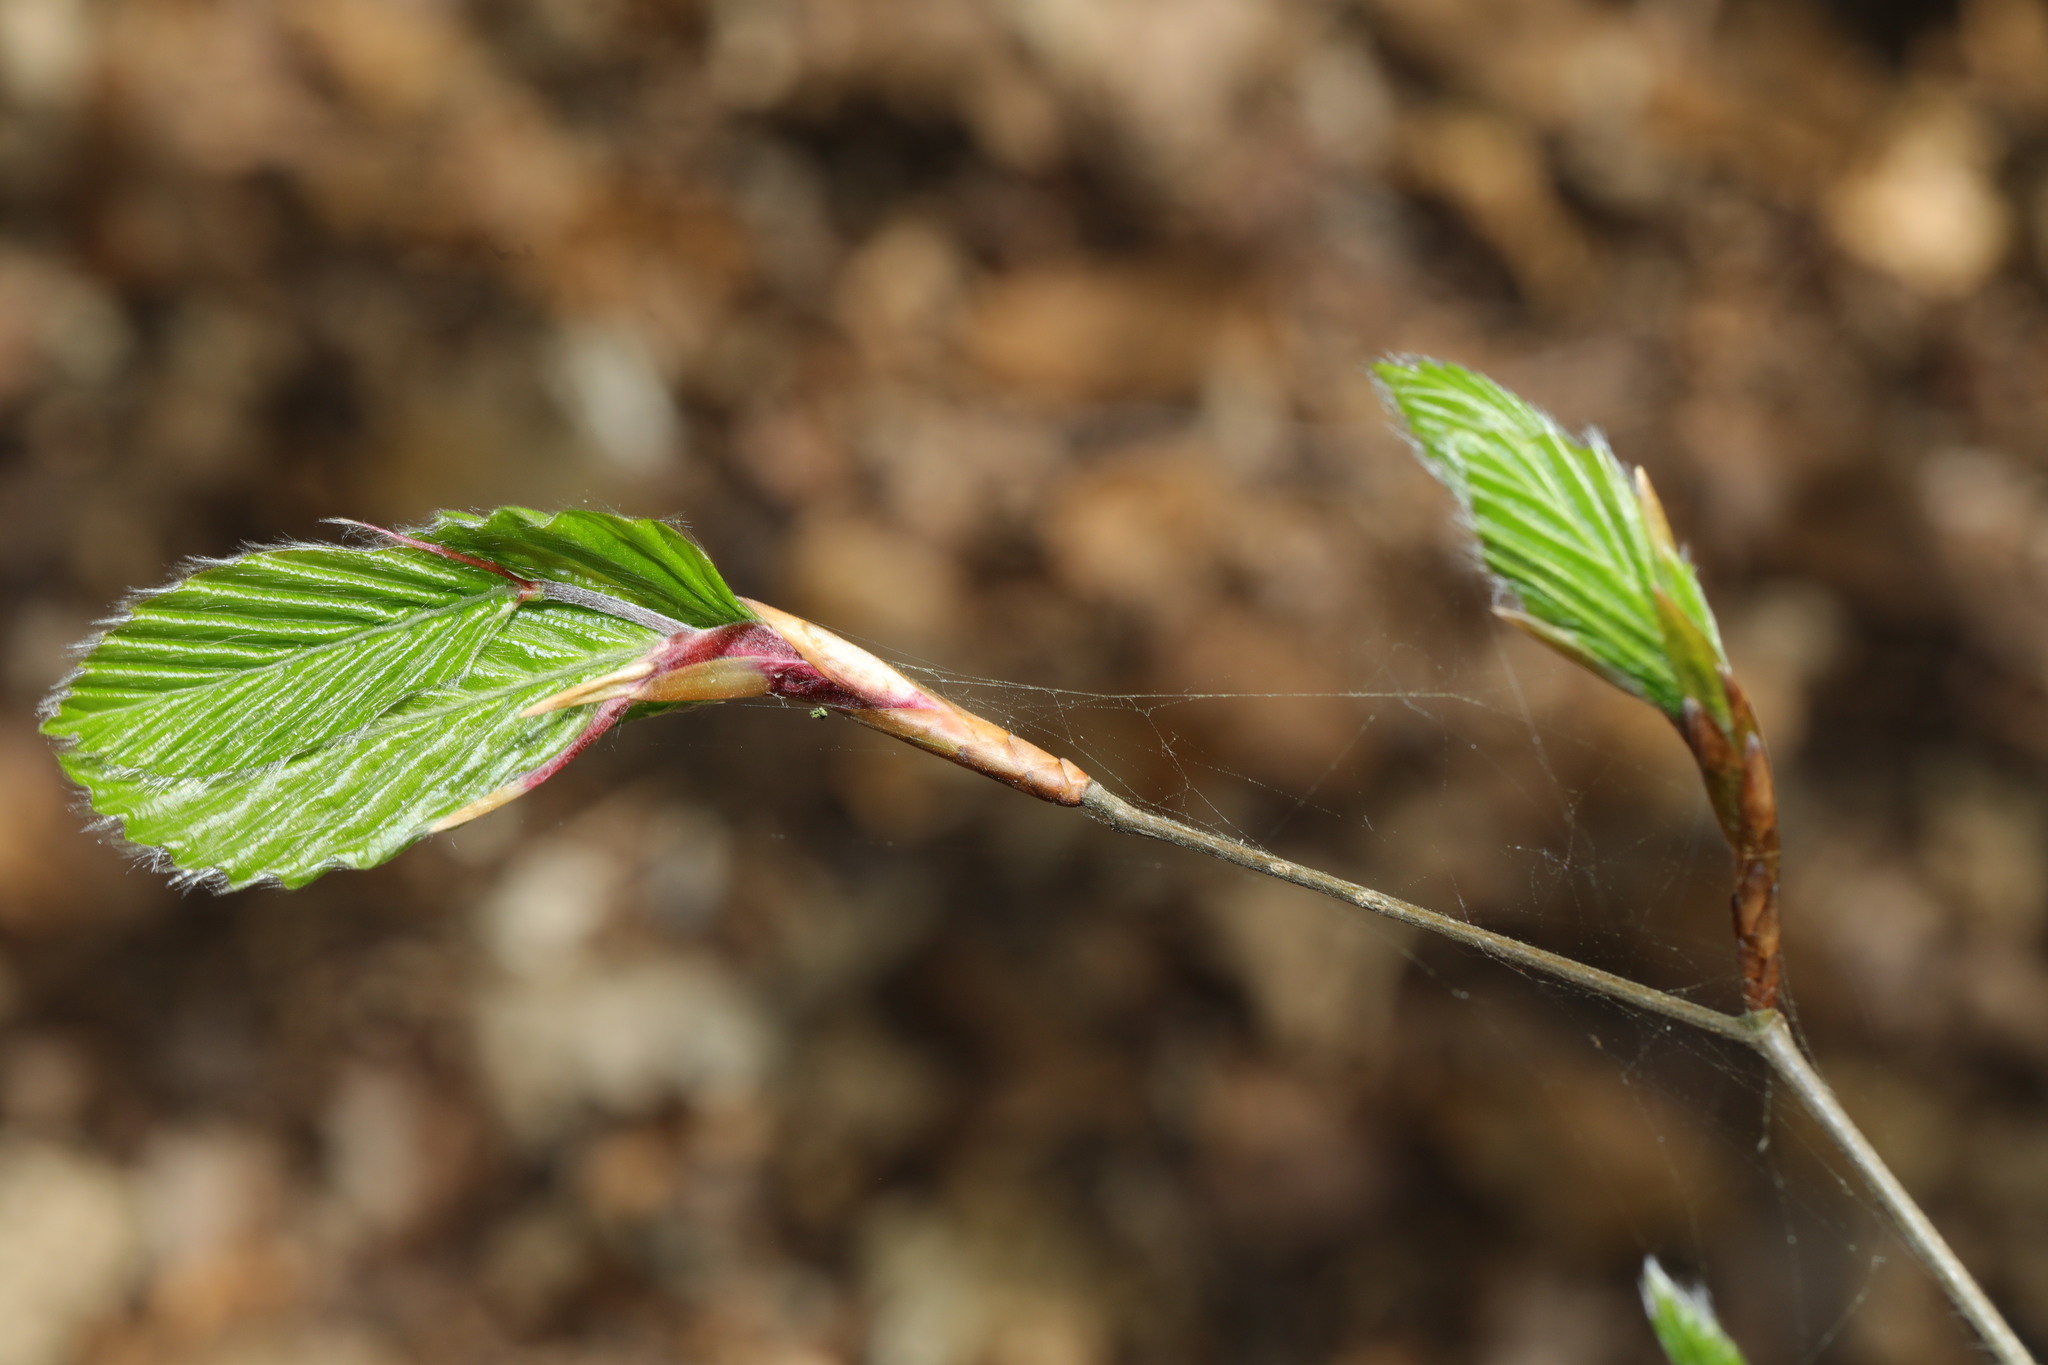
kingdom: Plantae
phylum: Tracheophyta
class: Magnoliopsida
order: Fagales
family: Fagaceae
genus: Fagus
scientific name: Fagus sylvatica
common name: Beech
